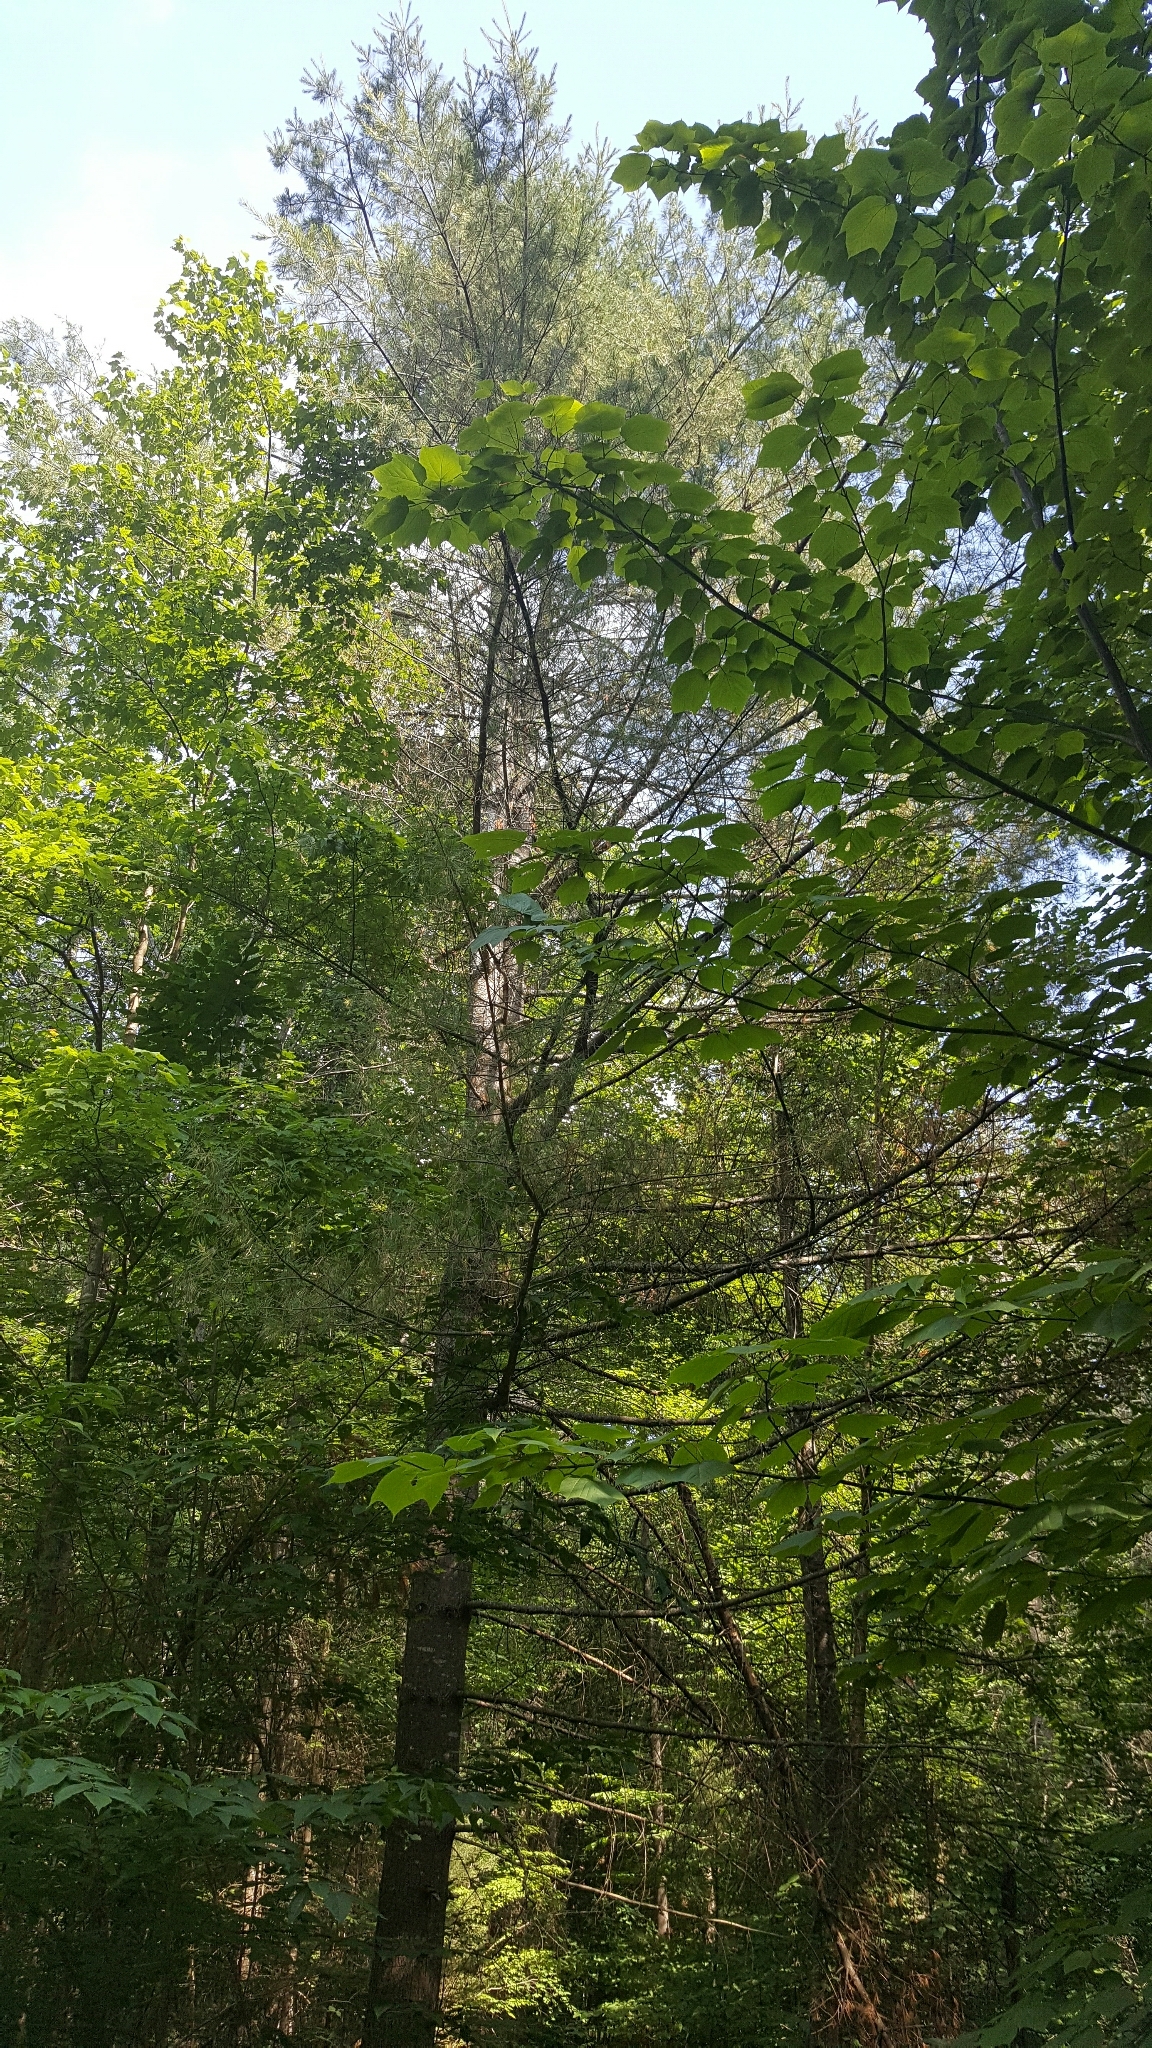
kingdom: Plantae
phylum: Tracheophyta
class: Pinopsida
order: Pinales
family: Pinaceae
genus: Pinus
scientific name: Pinus strobus
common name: Weymouth pine
